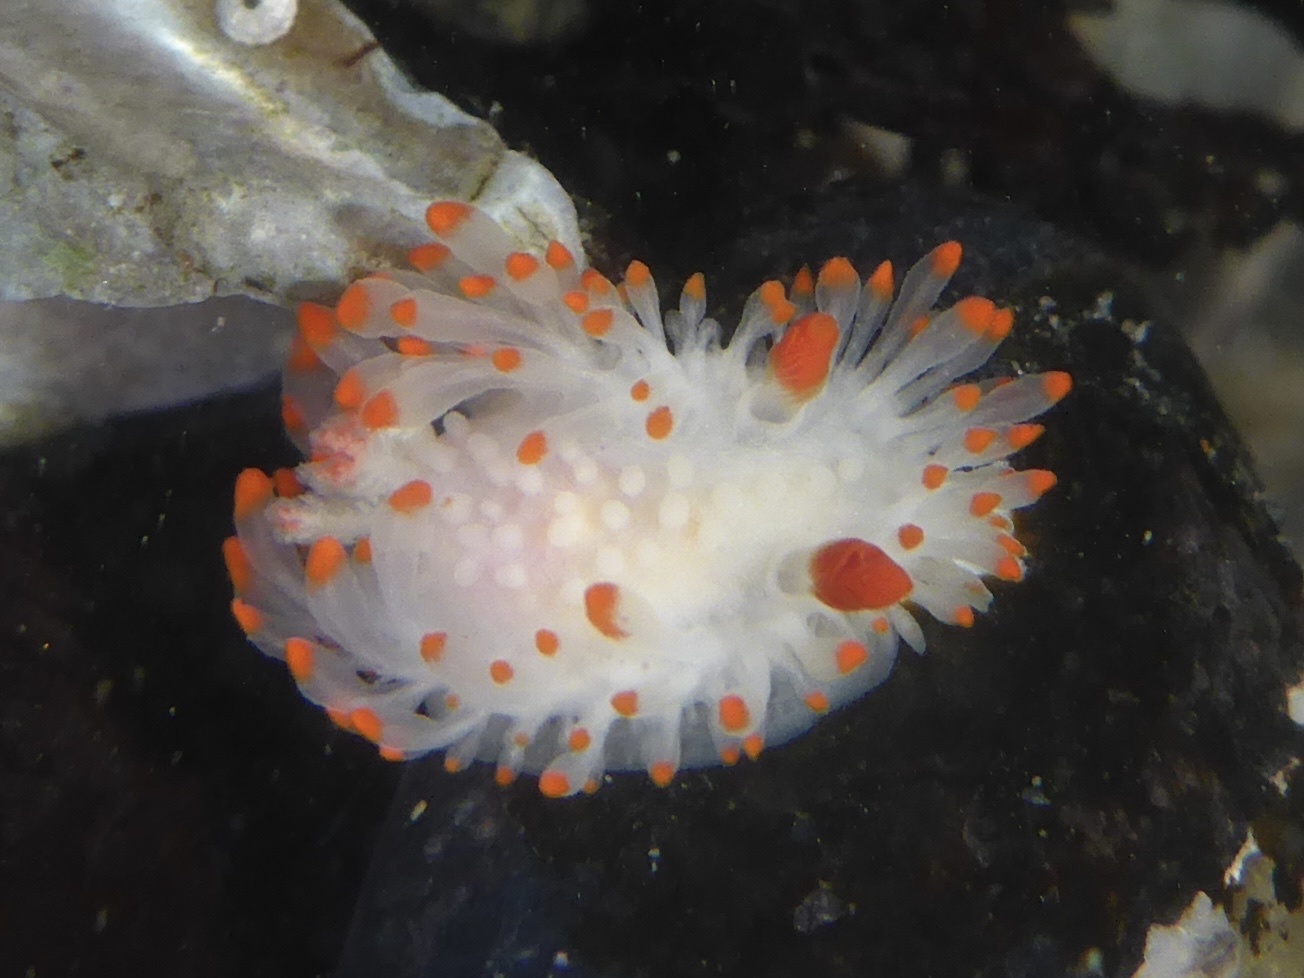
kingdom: Animalia
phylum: Mollusca
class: Gastropoda
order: Nudibranchia
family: Polyceridae
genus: Limacia
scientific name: Limacia cockerelli
